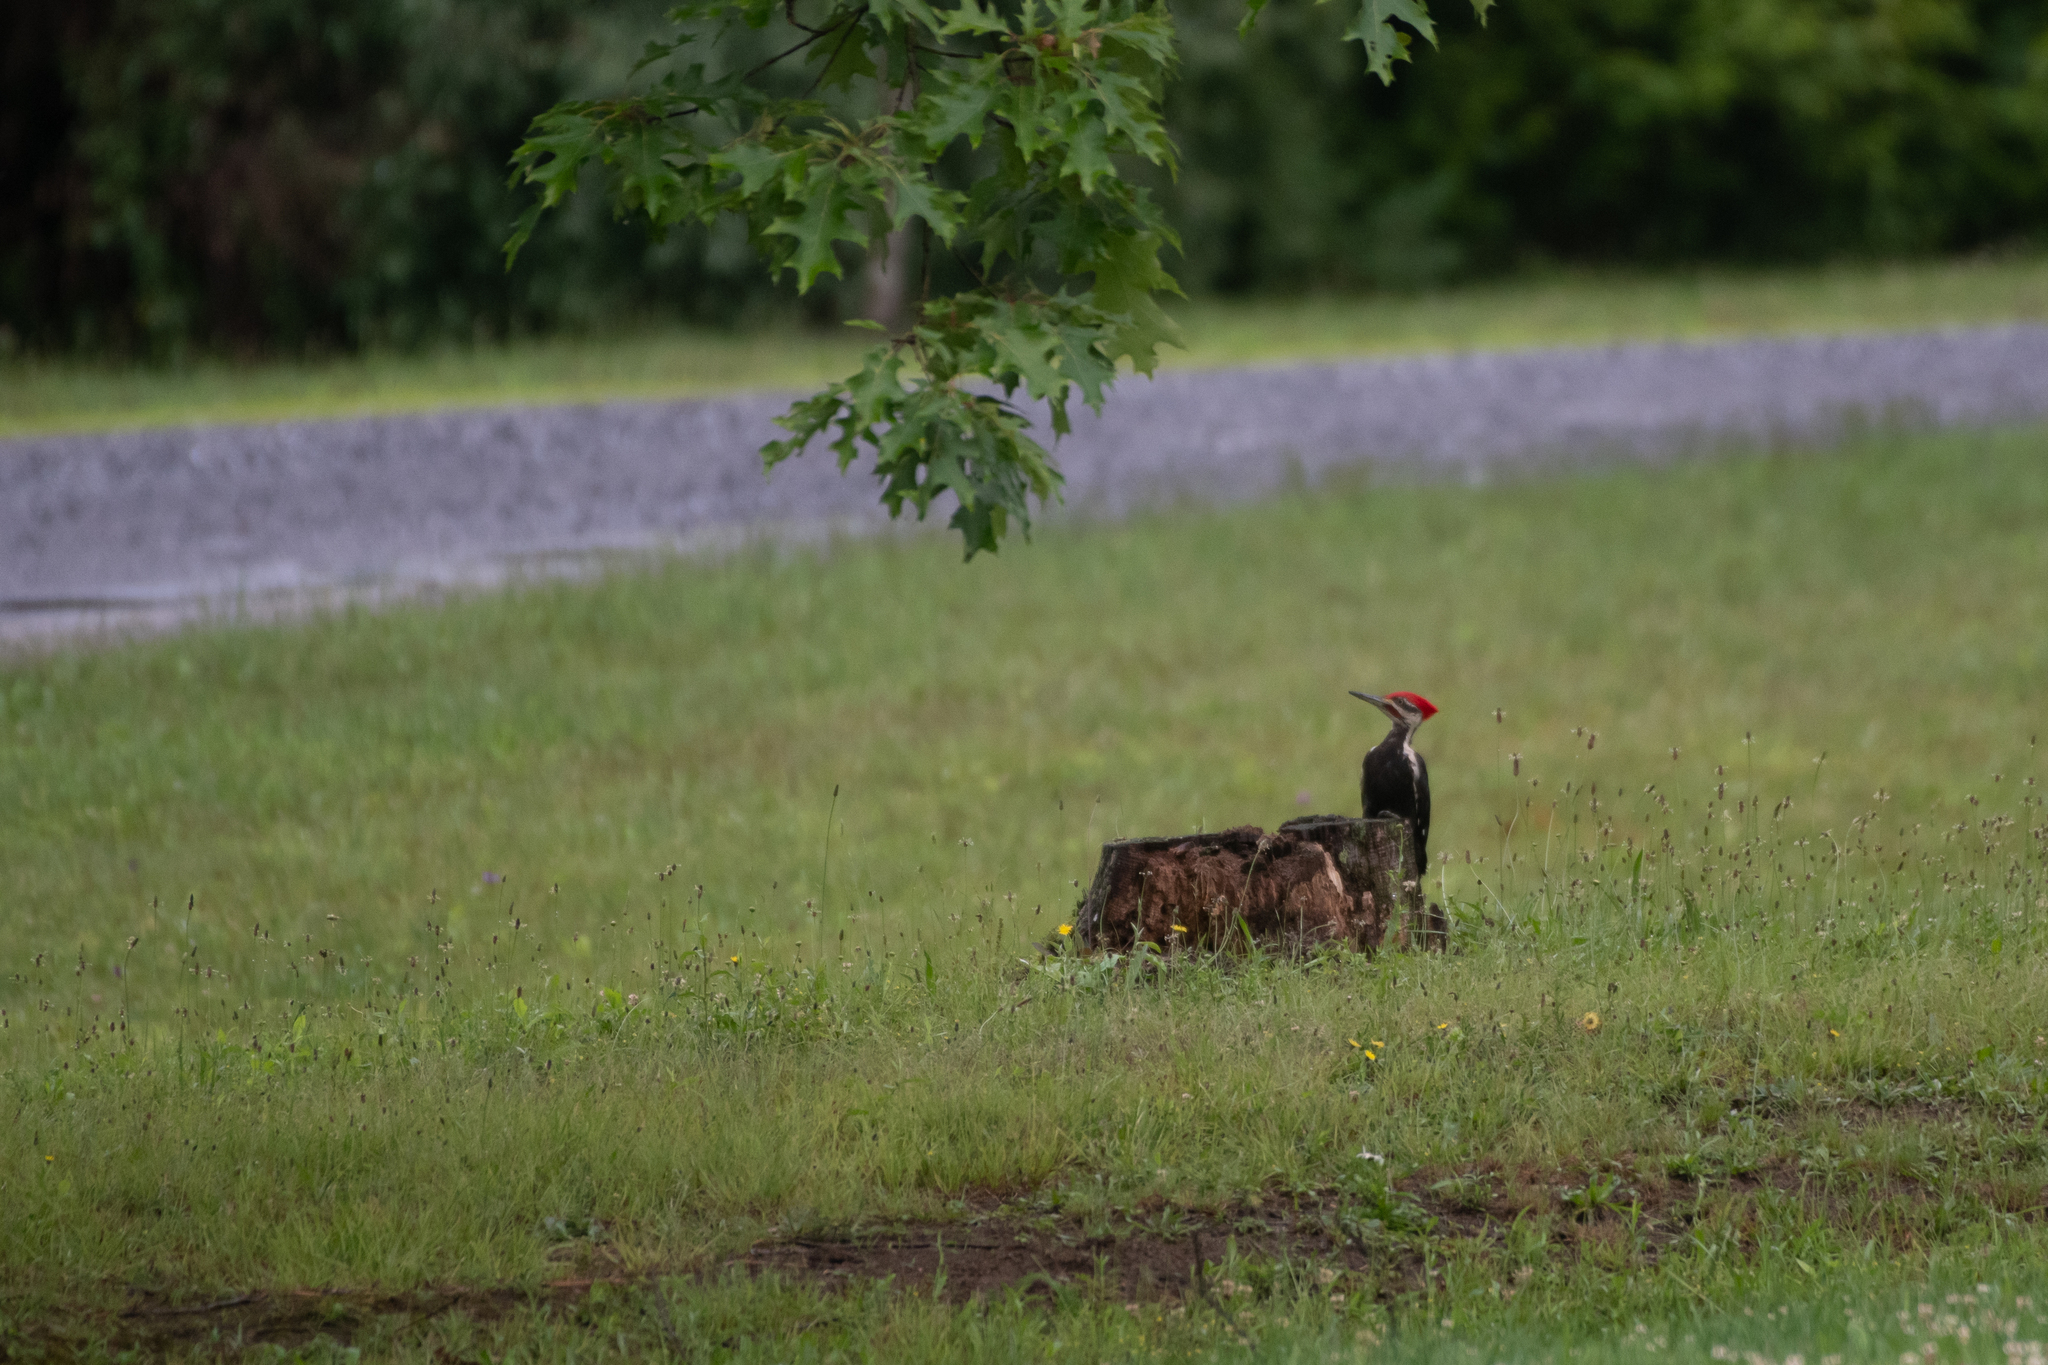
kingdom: Animalia
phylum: Chordata
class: Aves
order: Piciformes
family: Picidae
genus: Dryocopus
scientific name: Dryocopus pileatus
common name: Pileated woodpecker
